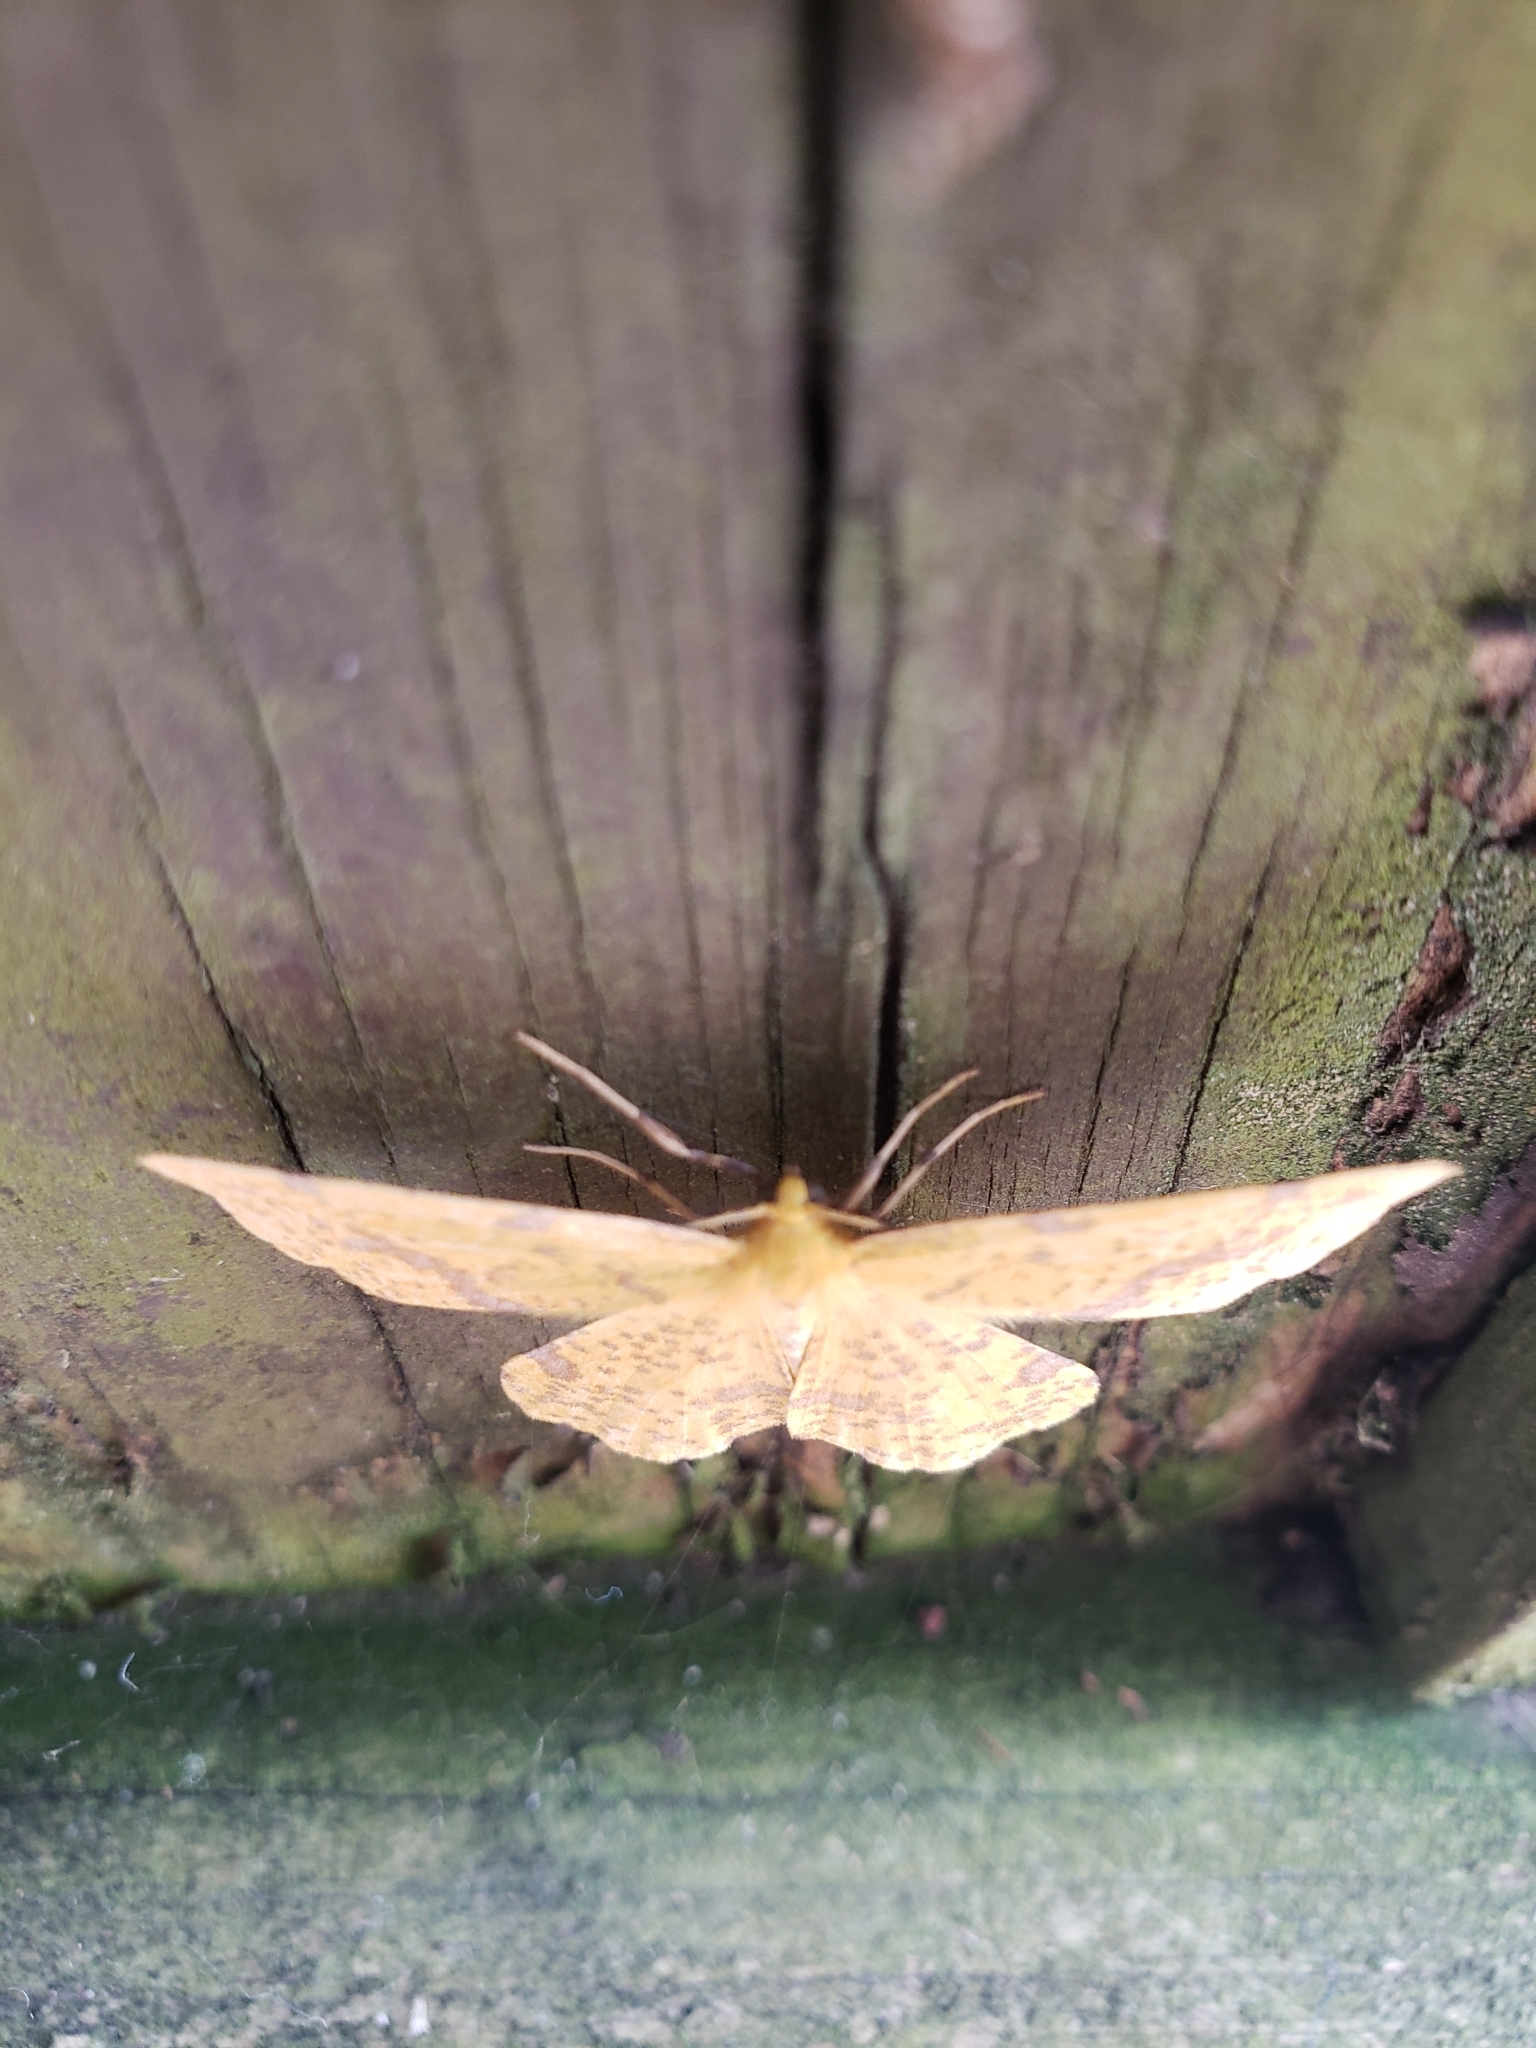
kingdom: Animalia
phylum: Arthropoda
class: Insecta
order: Lepidoptera
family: Geometridae
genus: Xanthotype
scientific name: Xanthotype
